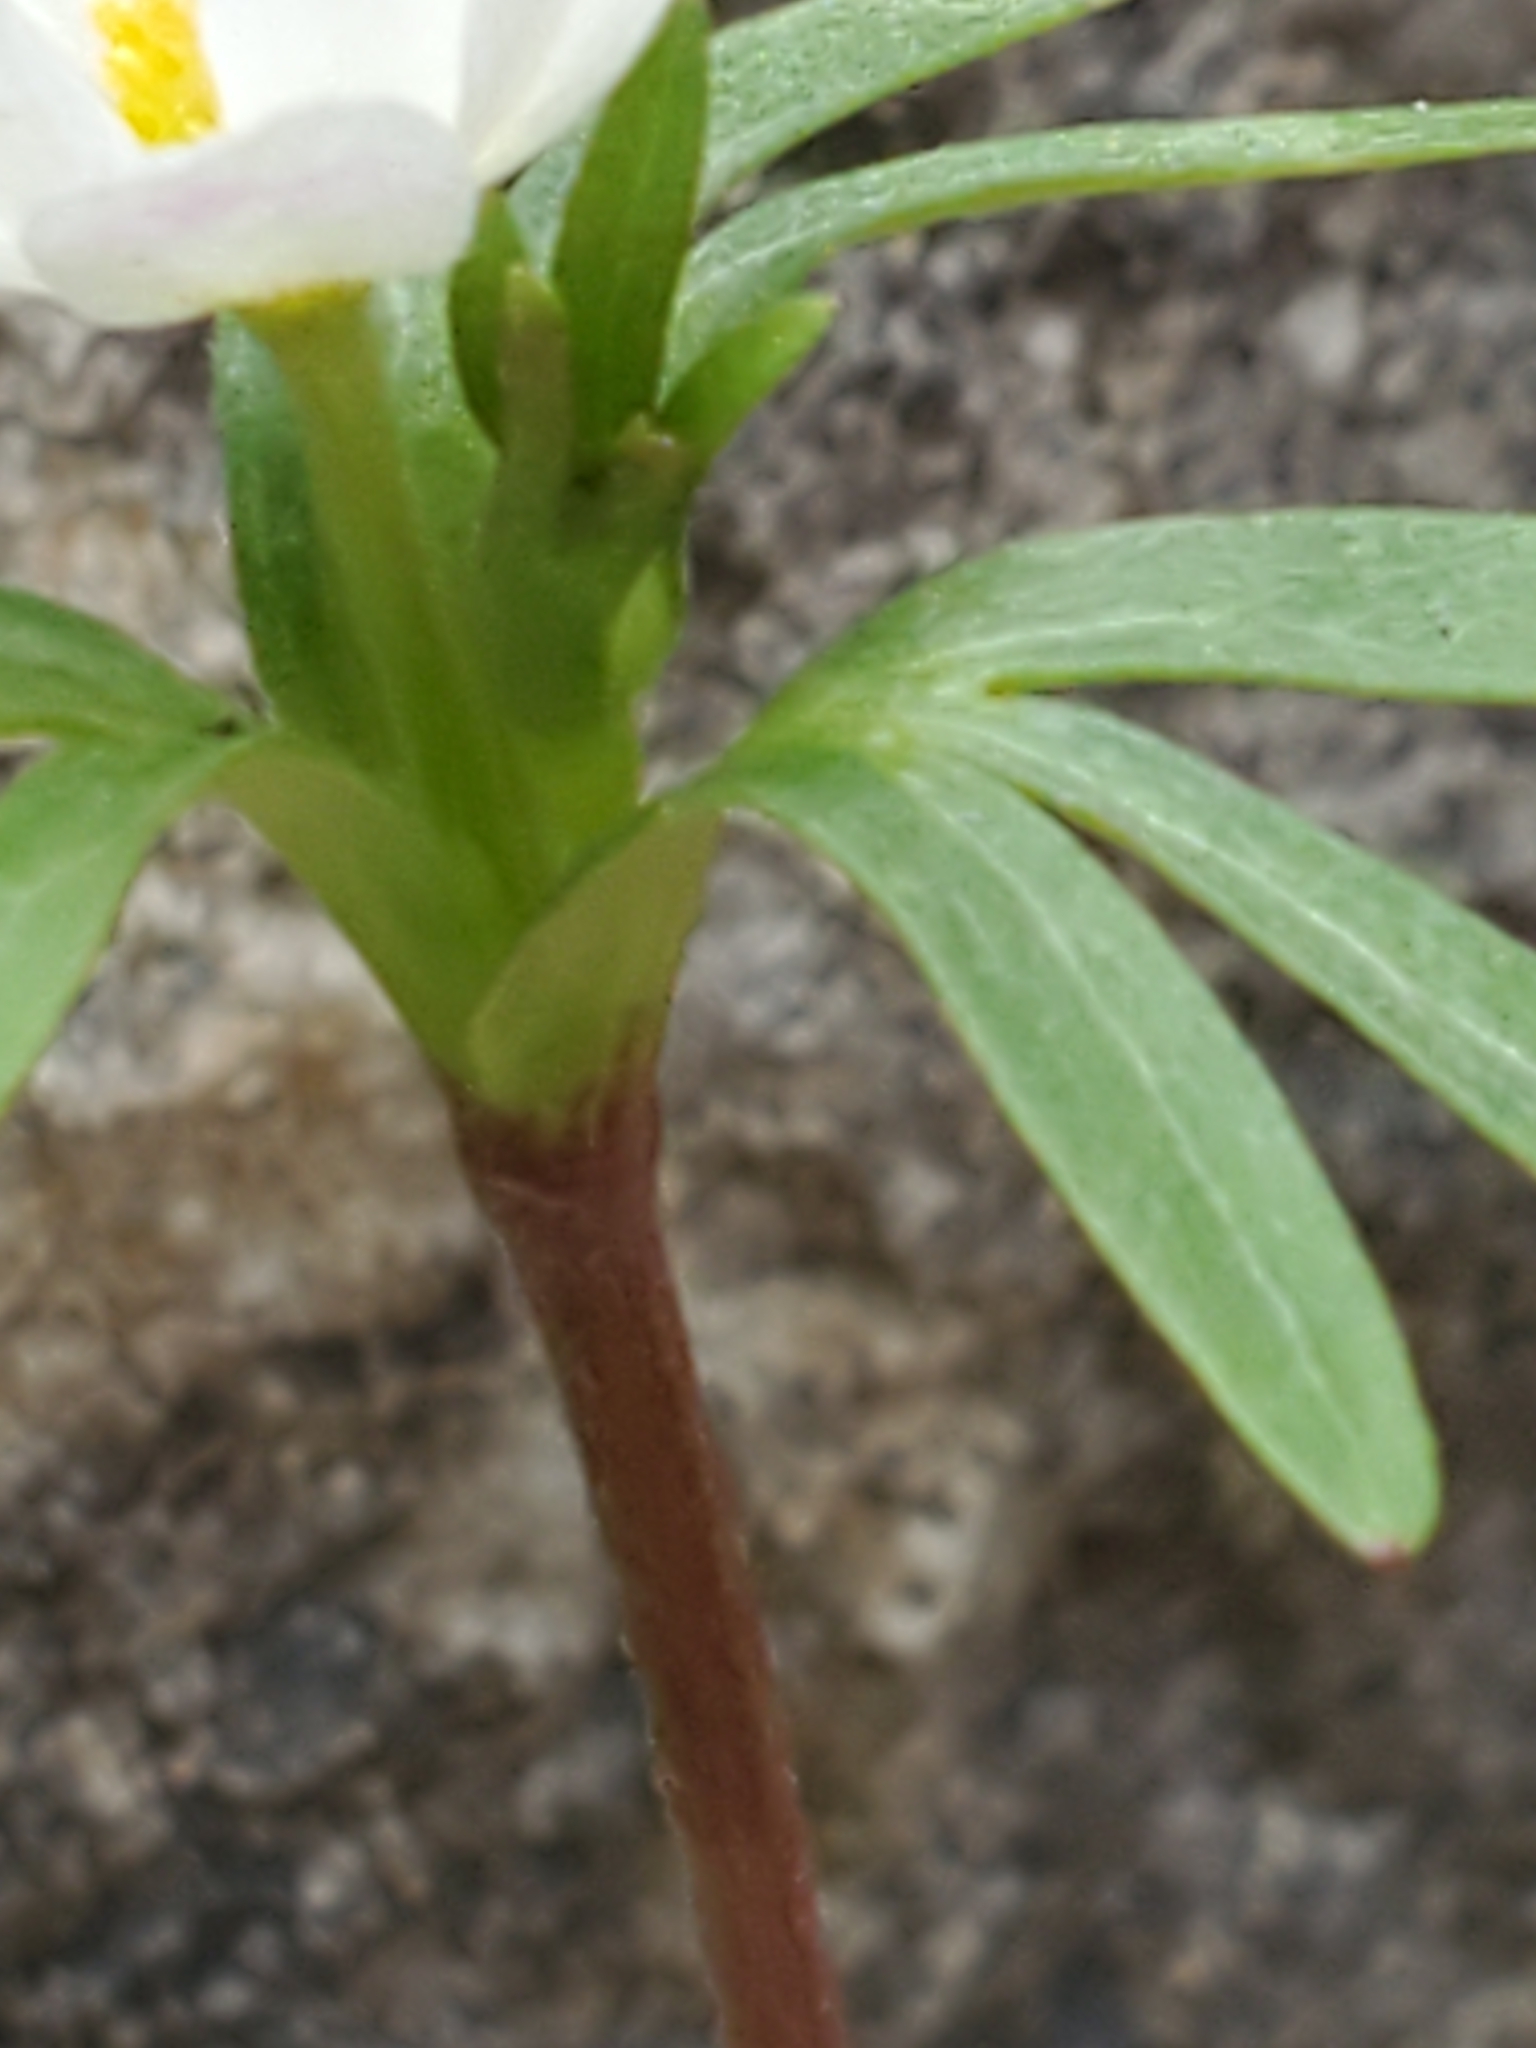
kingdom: Plantae
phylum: Tracheophyta
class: Magnoliopsida
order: Ranunculales
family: Ranunculaceae
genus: Anemone
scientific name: Anemone edwardsiana
